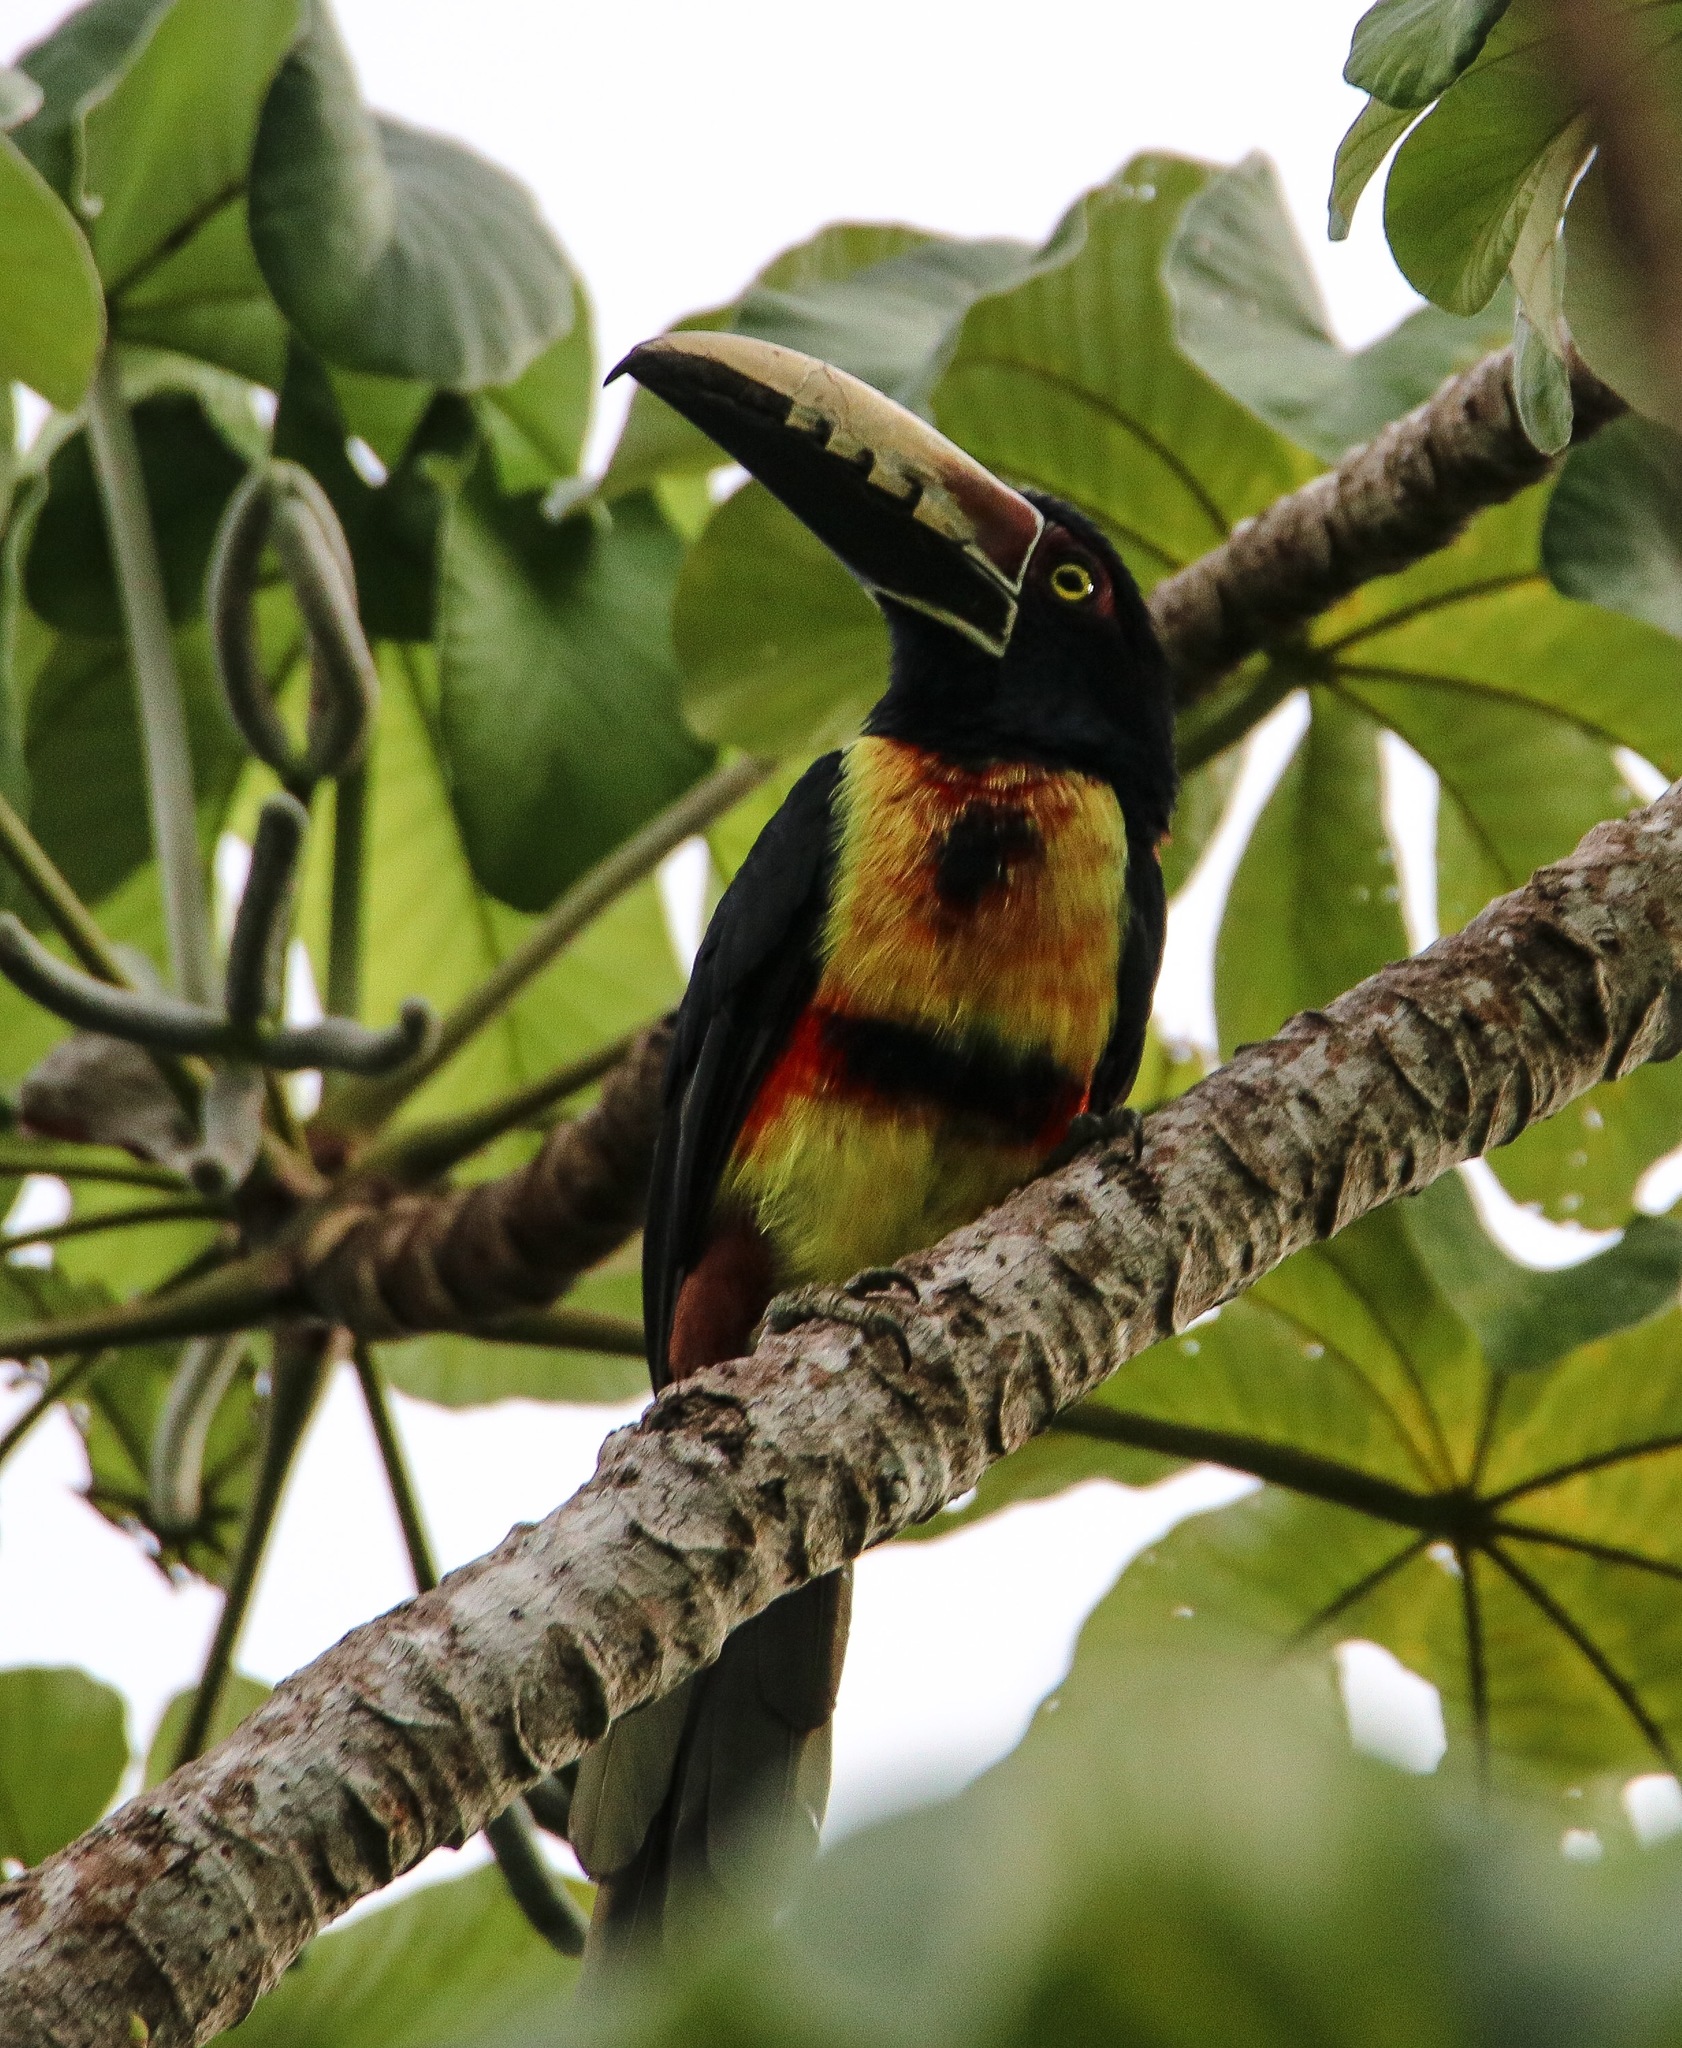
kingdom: Animalia
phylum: Chordata
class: Aves
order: Piciformes
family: Ramphastidae
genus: Pteroglossus
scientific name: Pteroglossus torquatus
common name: Collared aracari
